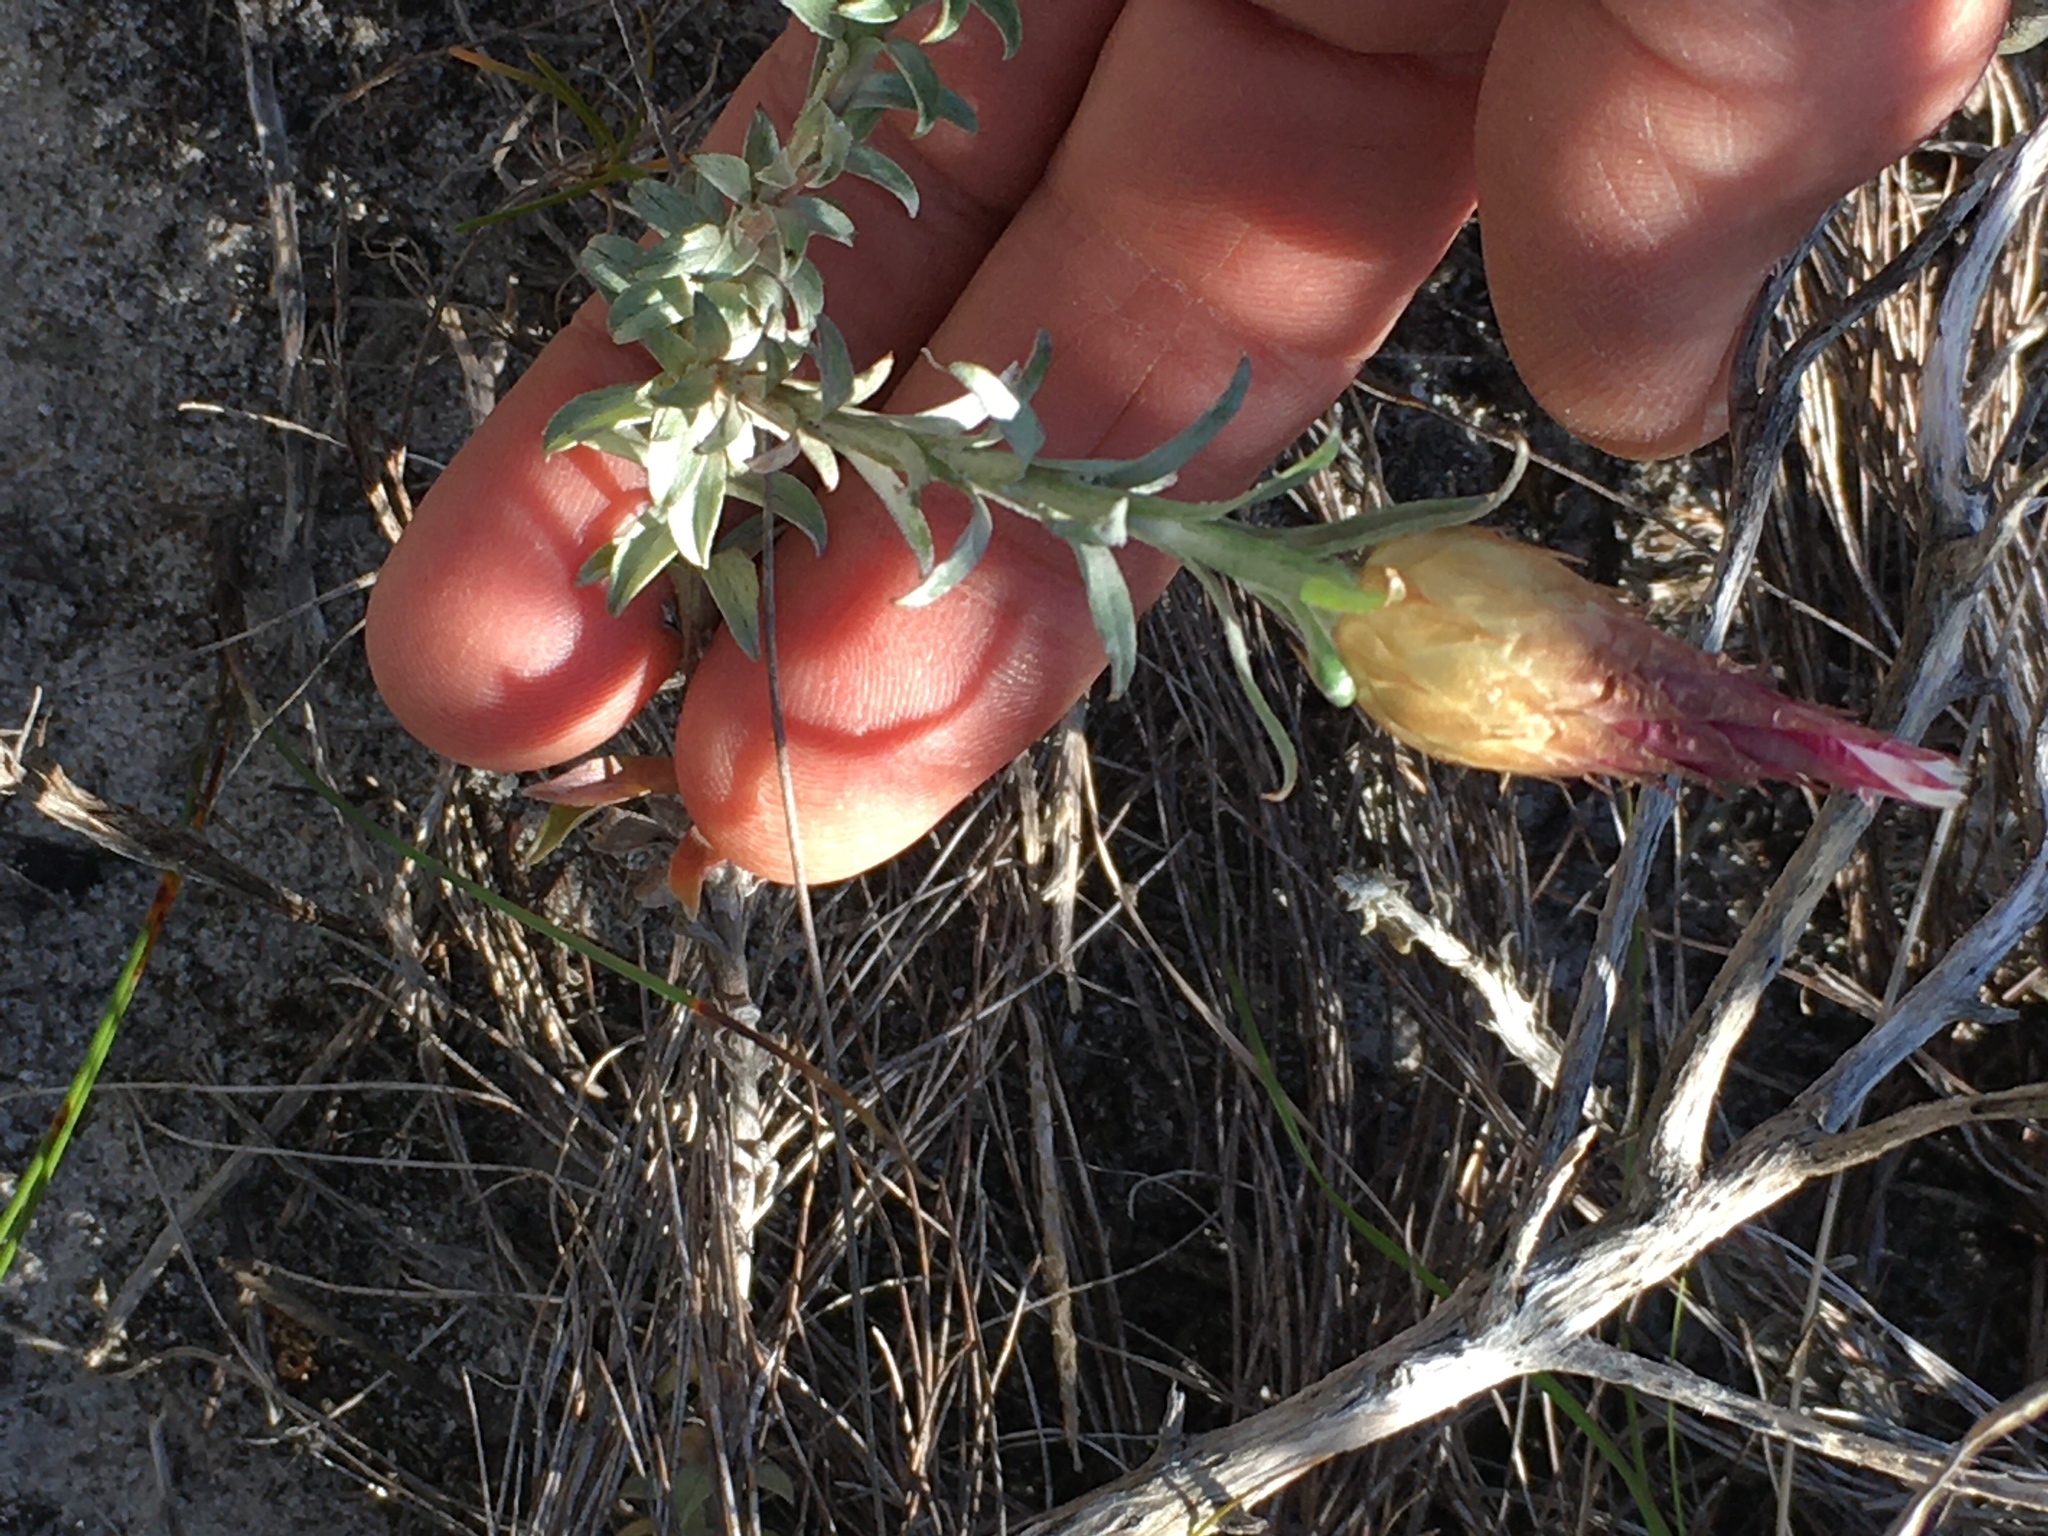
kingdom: Plantae
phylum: Tracheophyta
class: Magnoliopsida
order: Asterales
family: Asteraceae
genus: Helichrysum
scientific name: Helichrysum retortum
